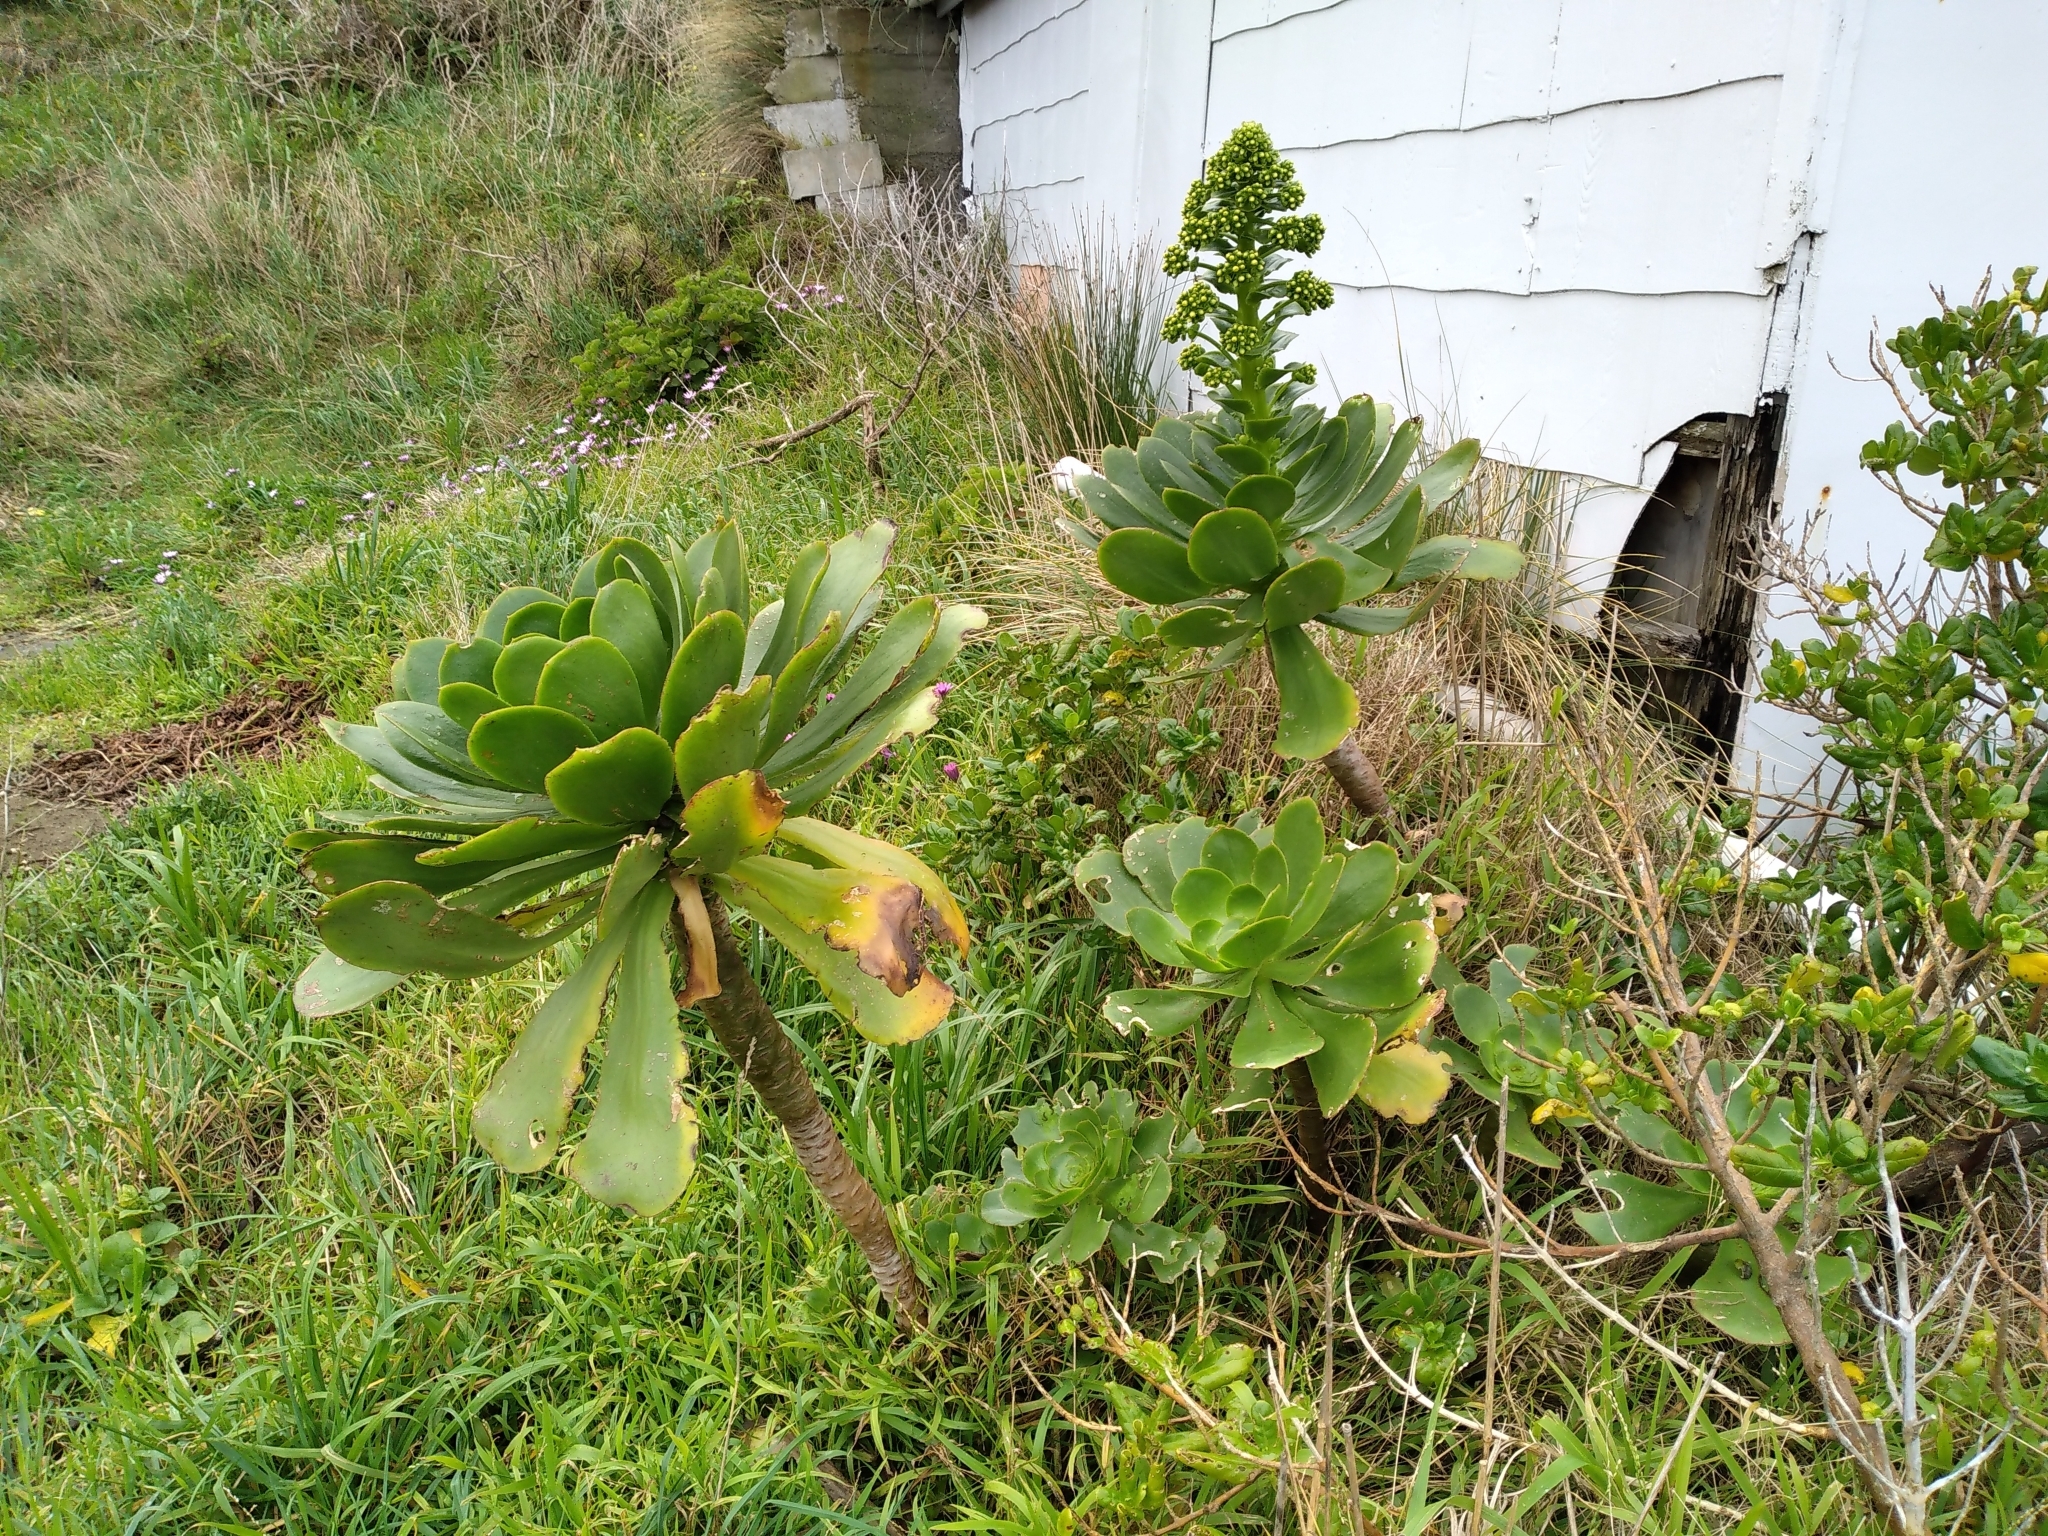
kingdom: Plantae
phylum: Tracheophyta
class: Magnoliopsida
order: Saxifragales
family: Crassulaceae
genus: Aeonium
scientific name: Aeonium arboreum
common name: Tree aeonium
